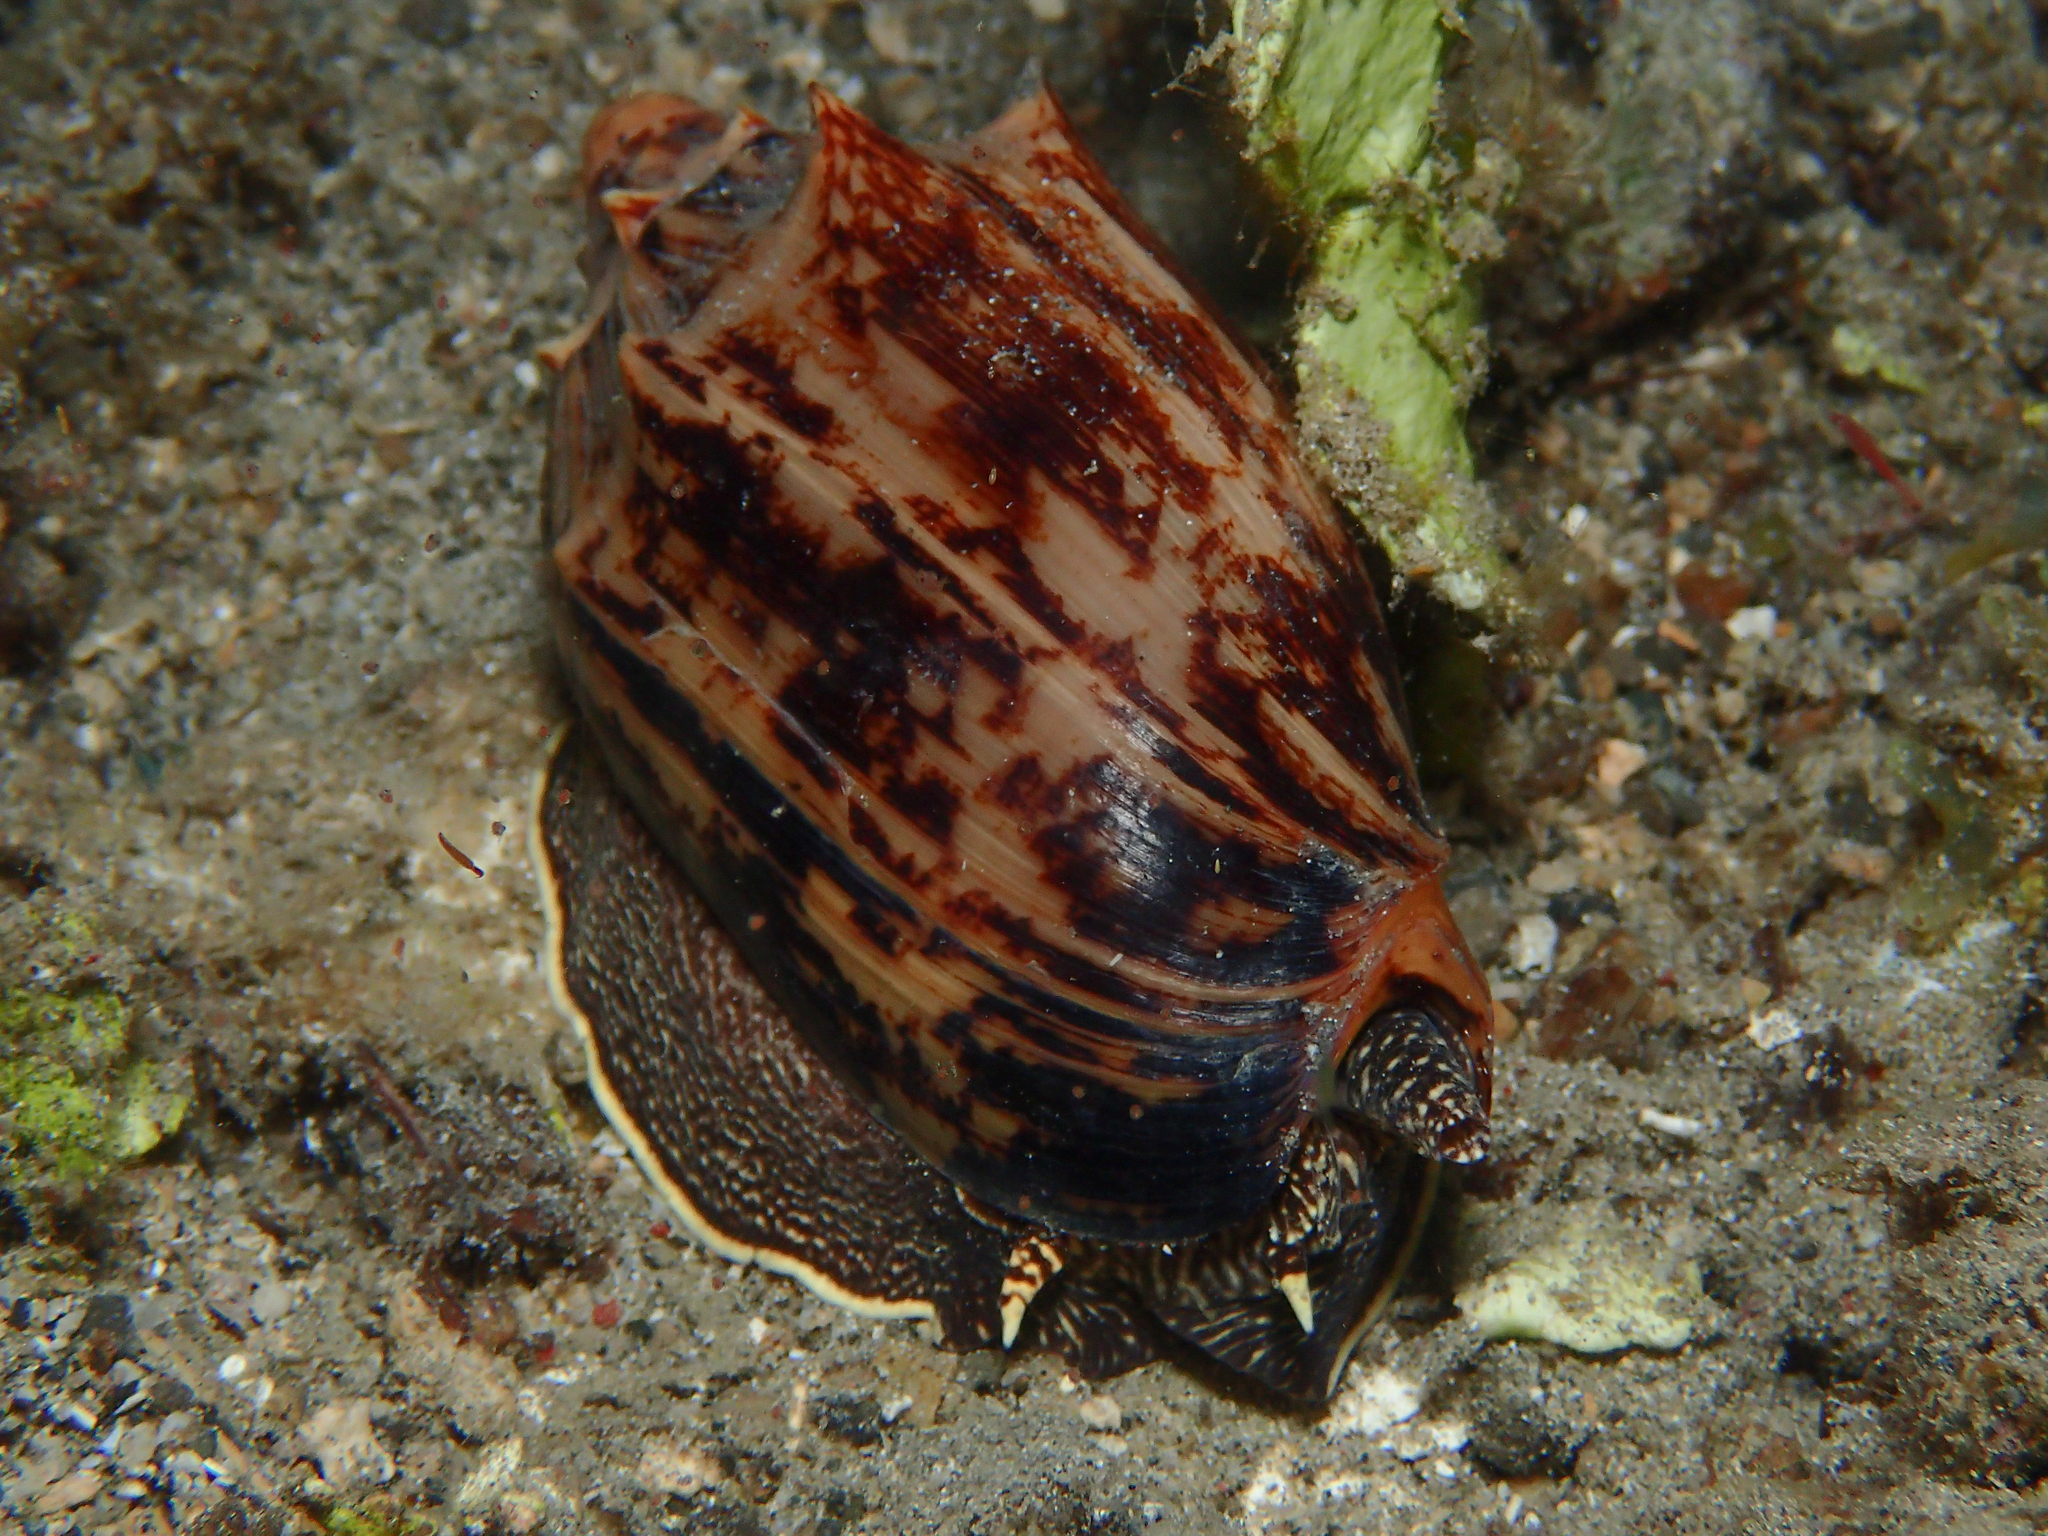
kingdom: Animalia
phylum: Mollusca
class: Gastropoda
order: Neogastropoda
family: Volutidae
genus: Cymbiola
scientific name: Cymbiola vespertilio
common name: Bat volute
